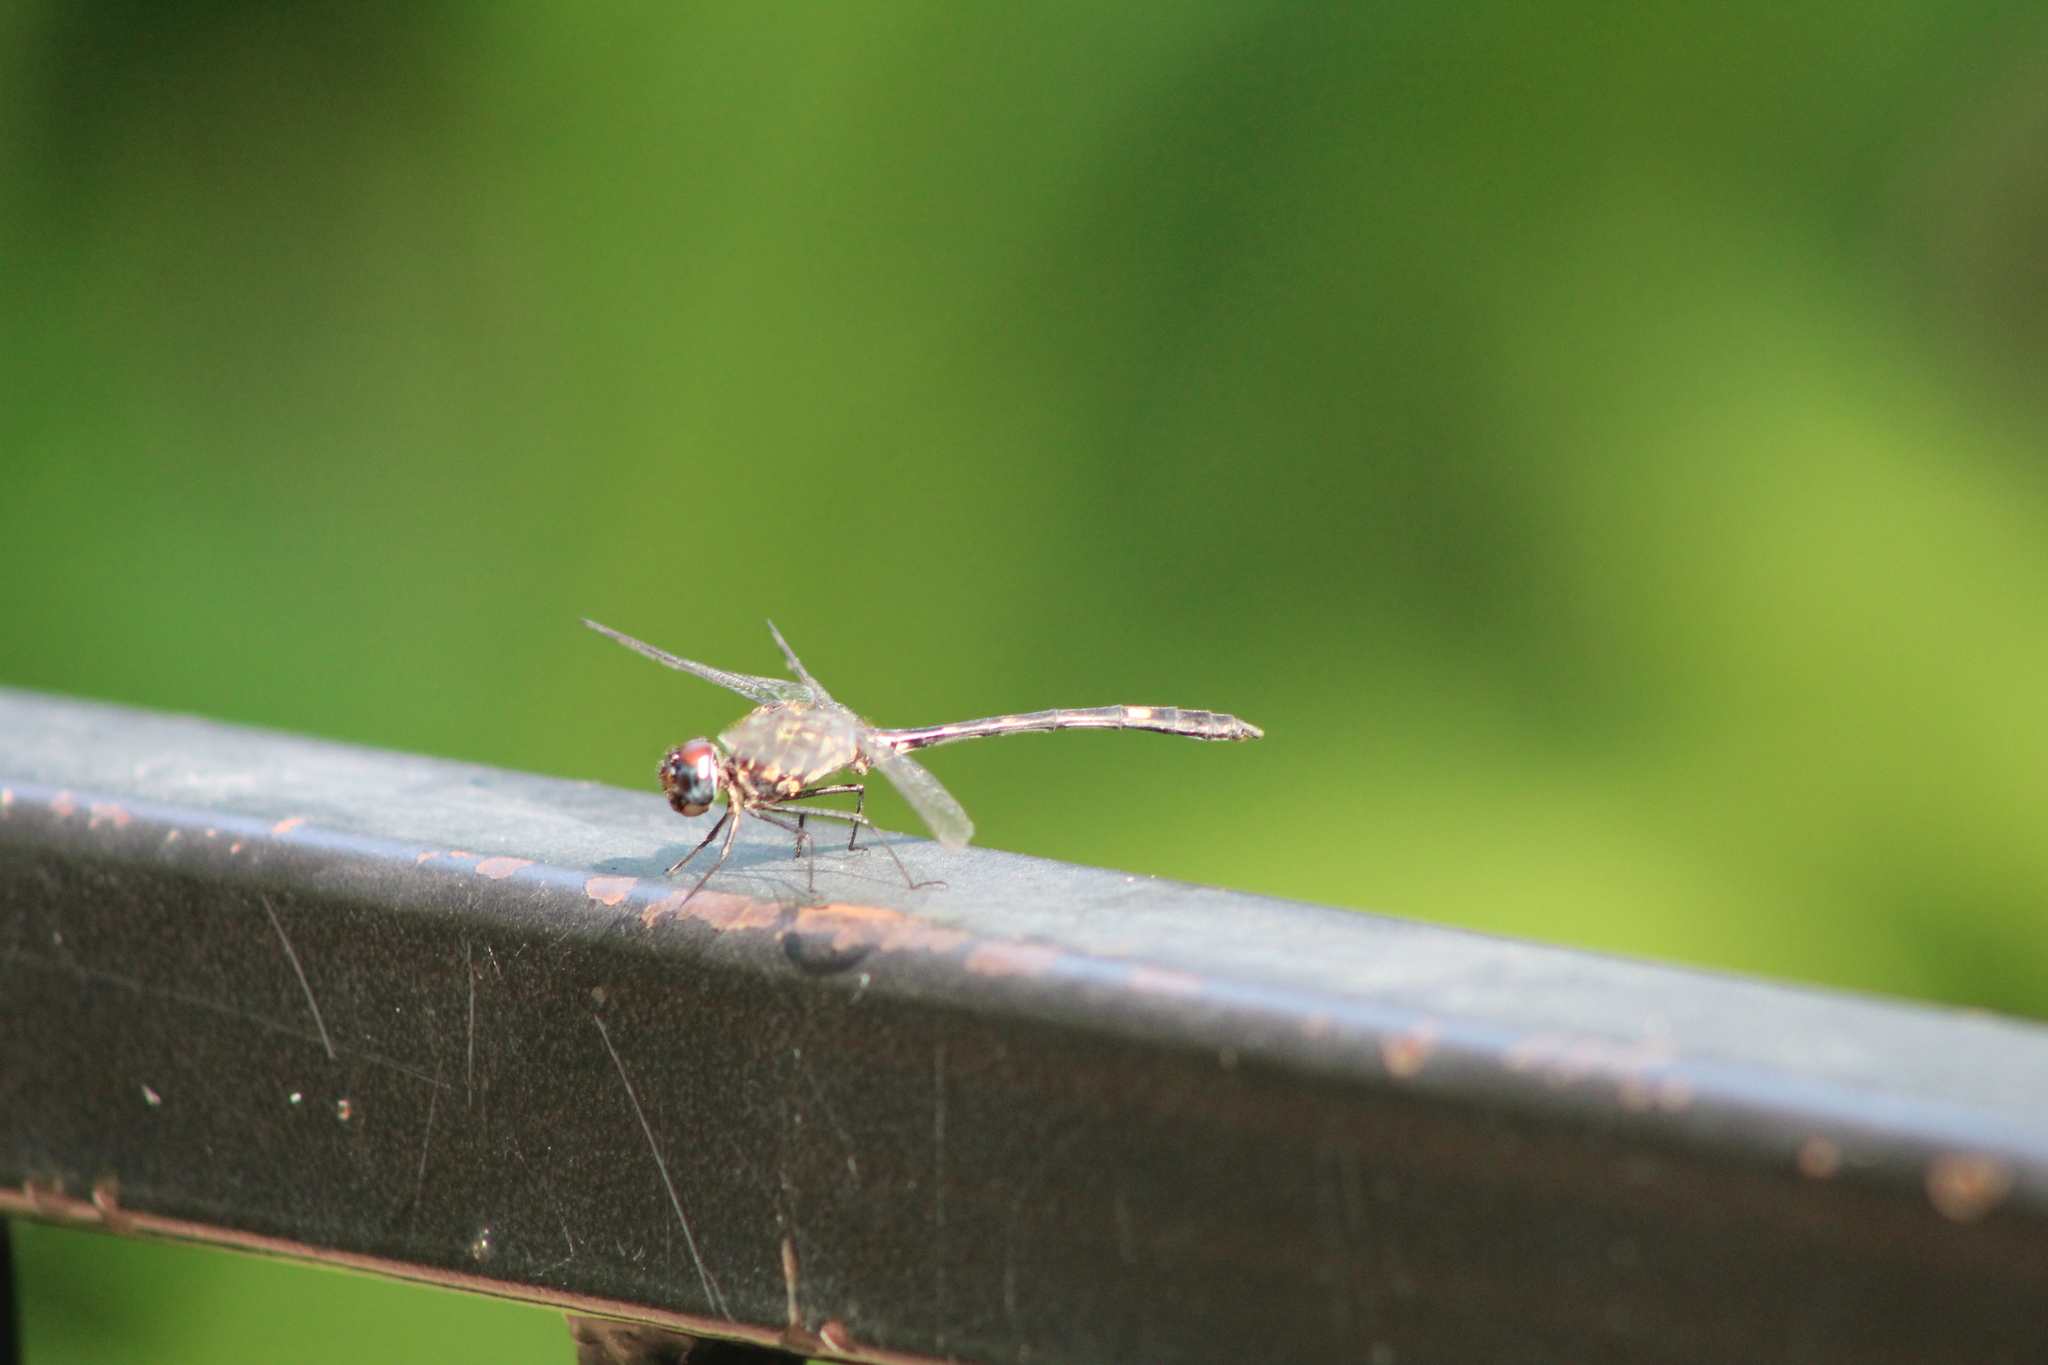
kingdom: Animalia
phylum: Arthropoda
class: Insecta
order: Odonata
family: Libellulidae
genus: Dythemis
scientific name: Dythemis velox
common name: Swift setwing
